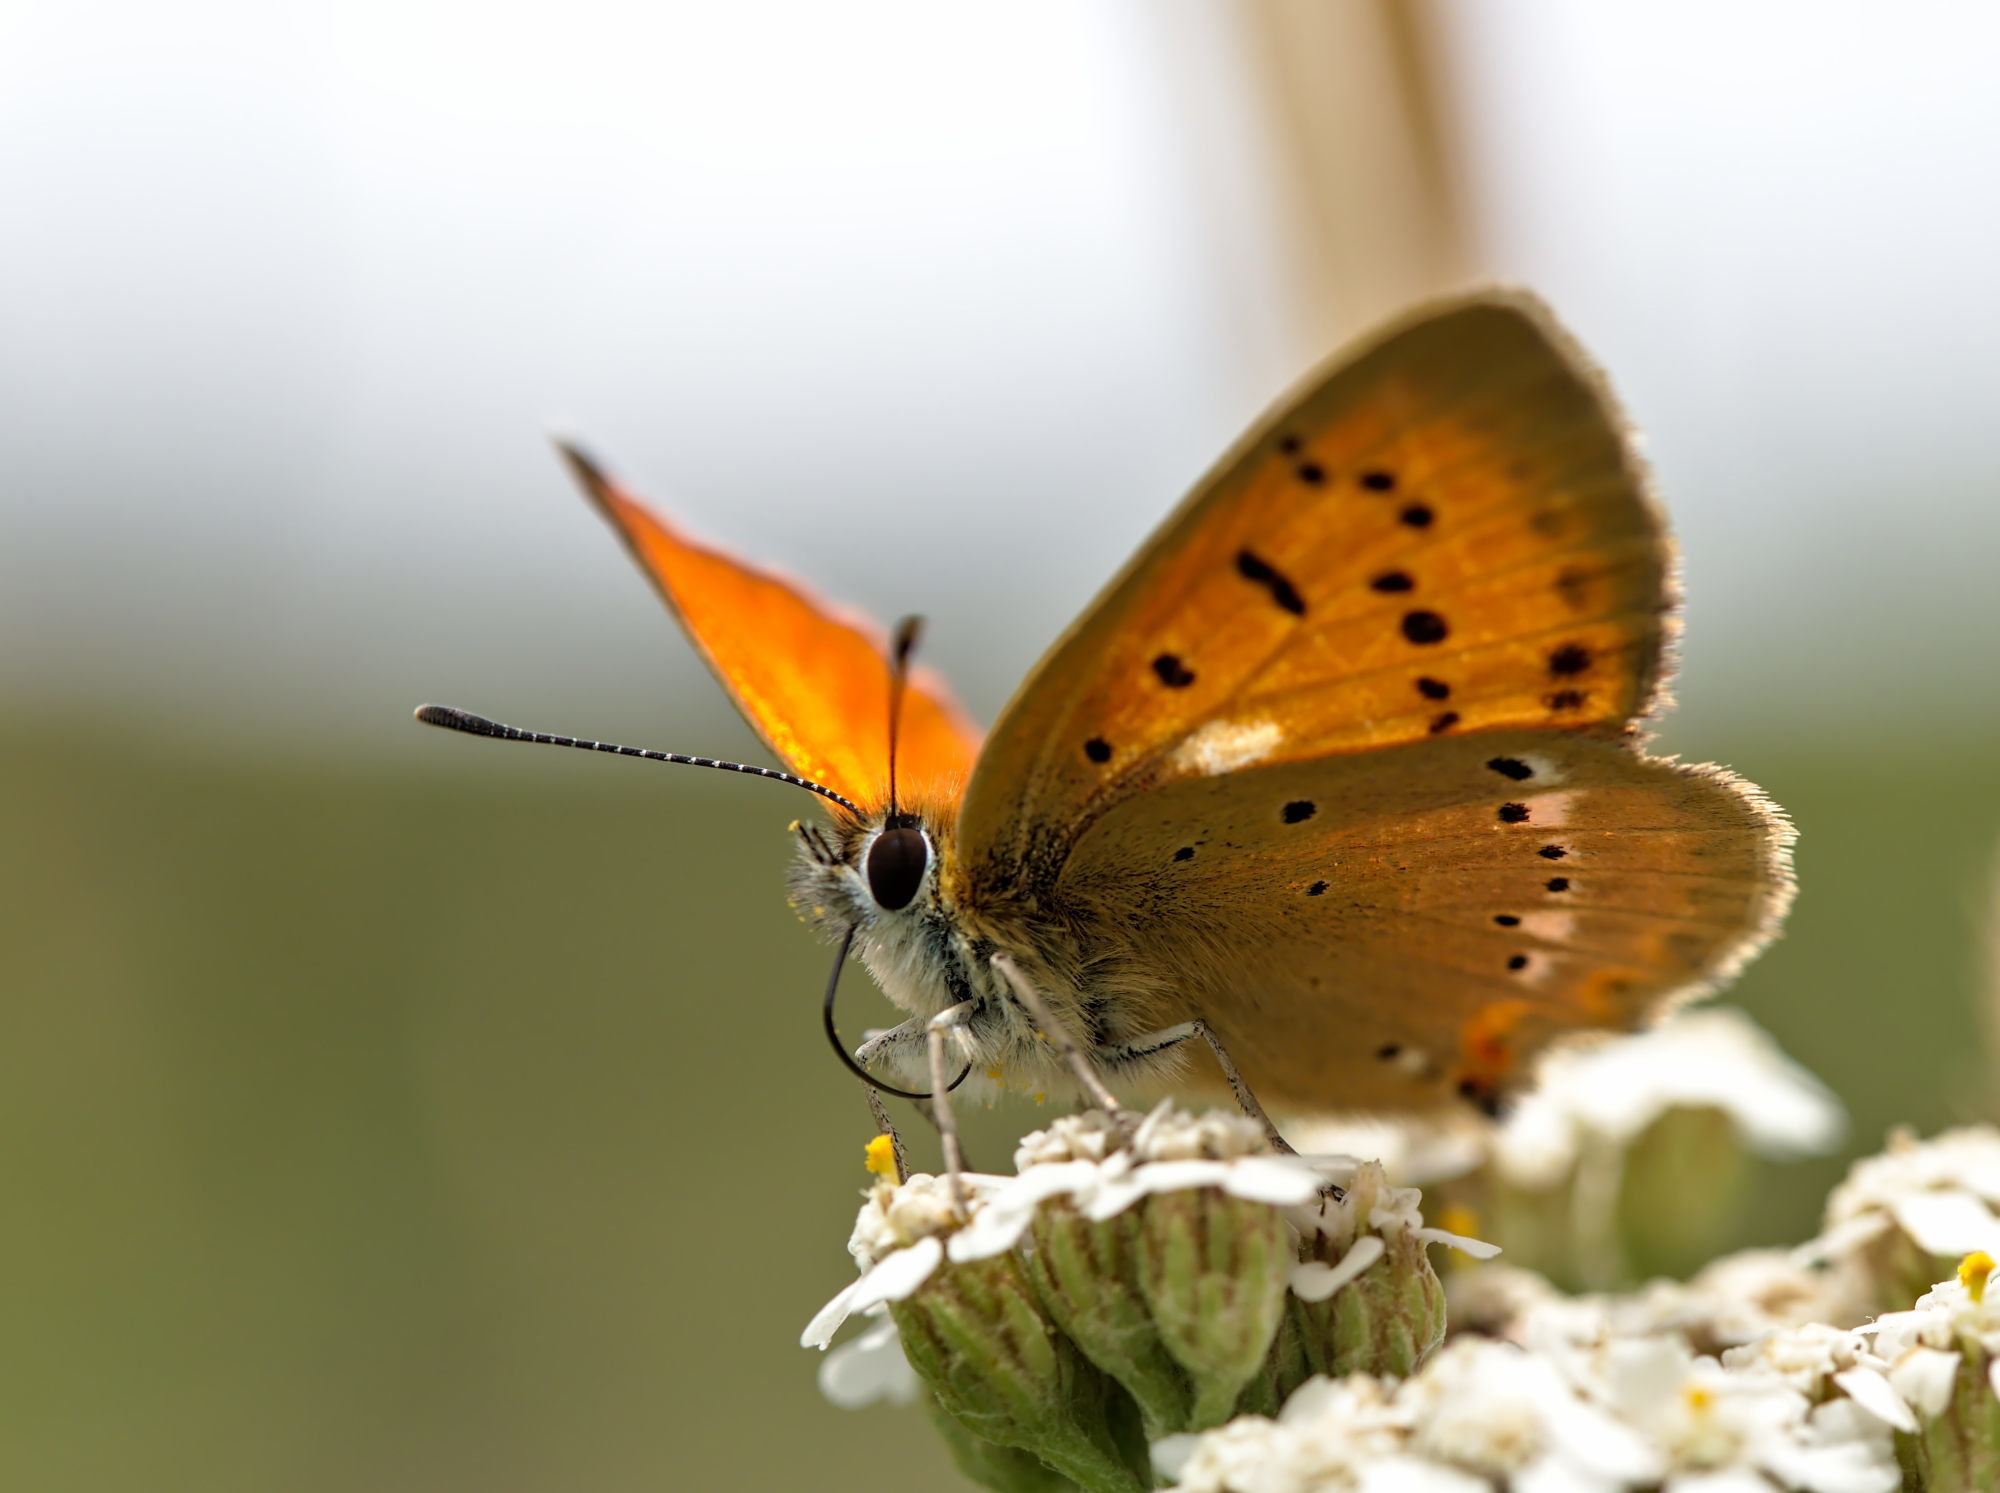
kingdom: Animalia
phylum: Arthropoda
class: Insecta
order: Lepidoptera
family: Lycaenidae
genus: Lycaena
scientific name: Lycaena virgaureae
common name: Scarce copper
